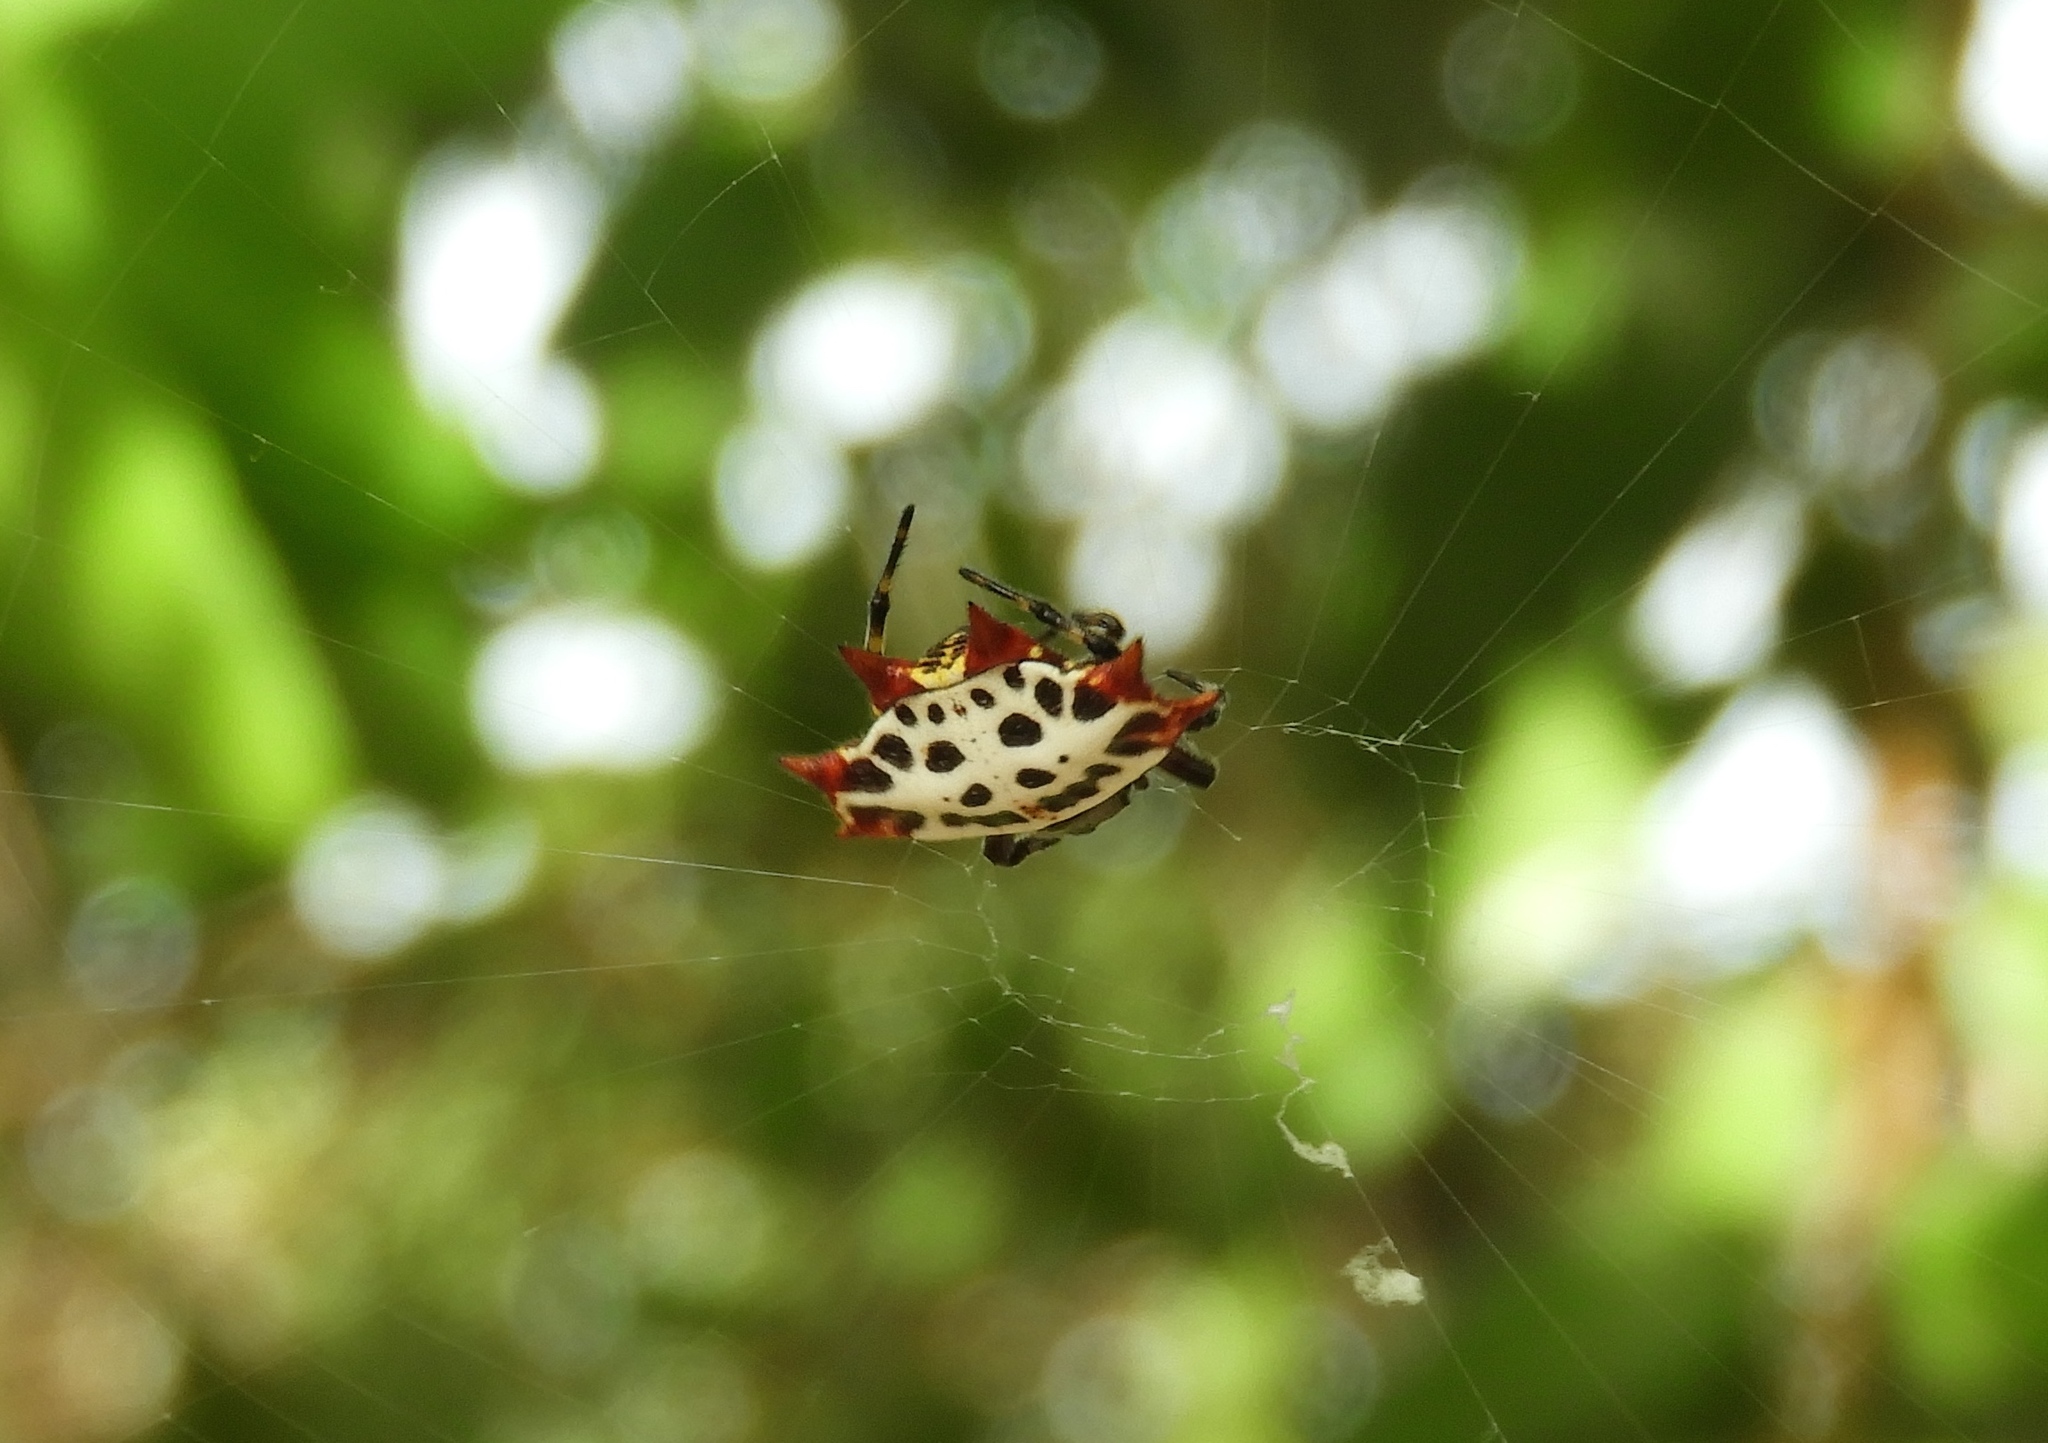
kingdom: Animalia
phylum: Arthropoda
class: Arachnida
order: Araneae
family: Araneidae
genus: Gasteracantha
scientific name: Gasteracantha cancriformis
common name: Orb weavers
